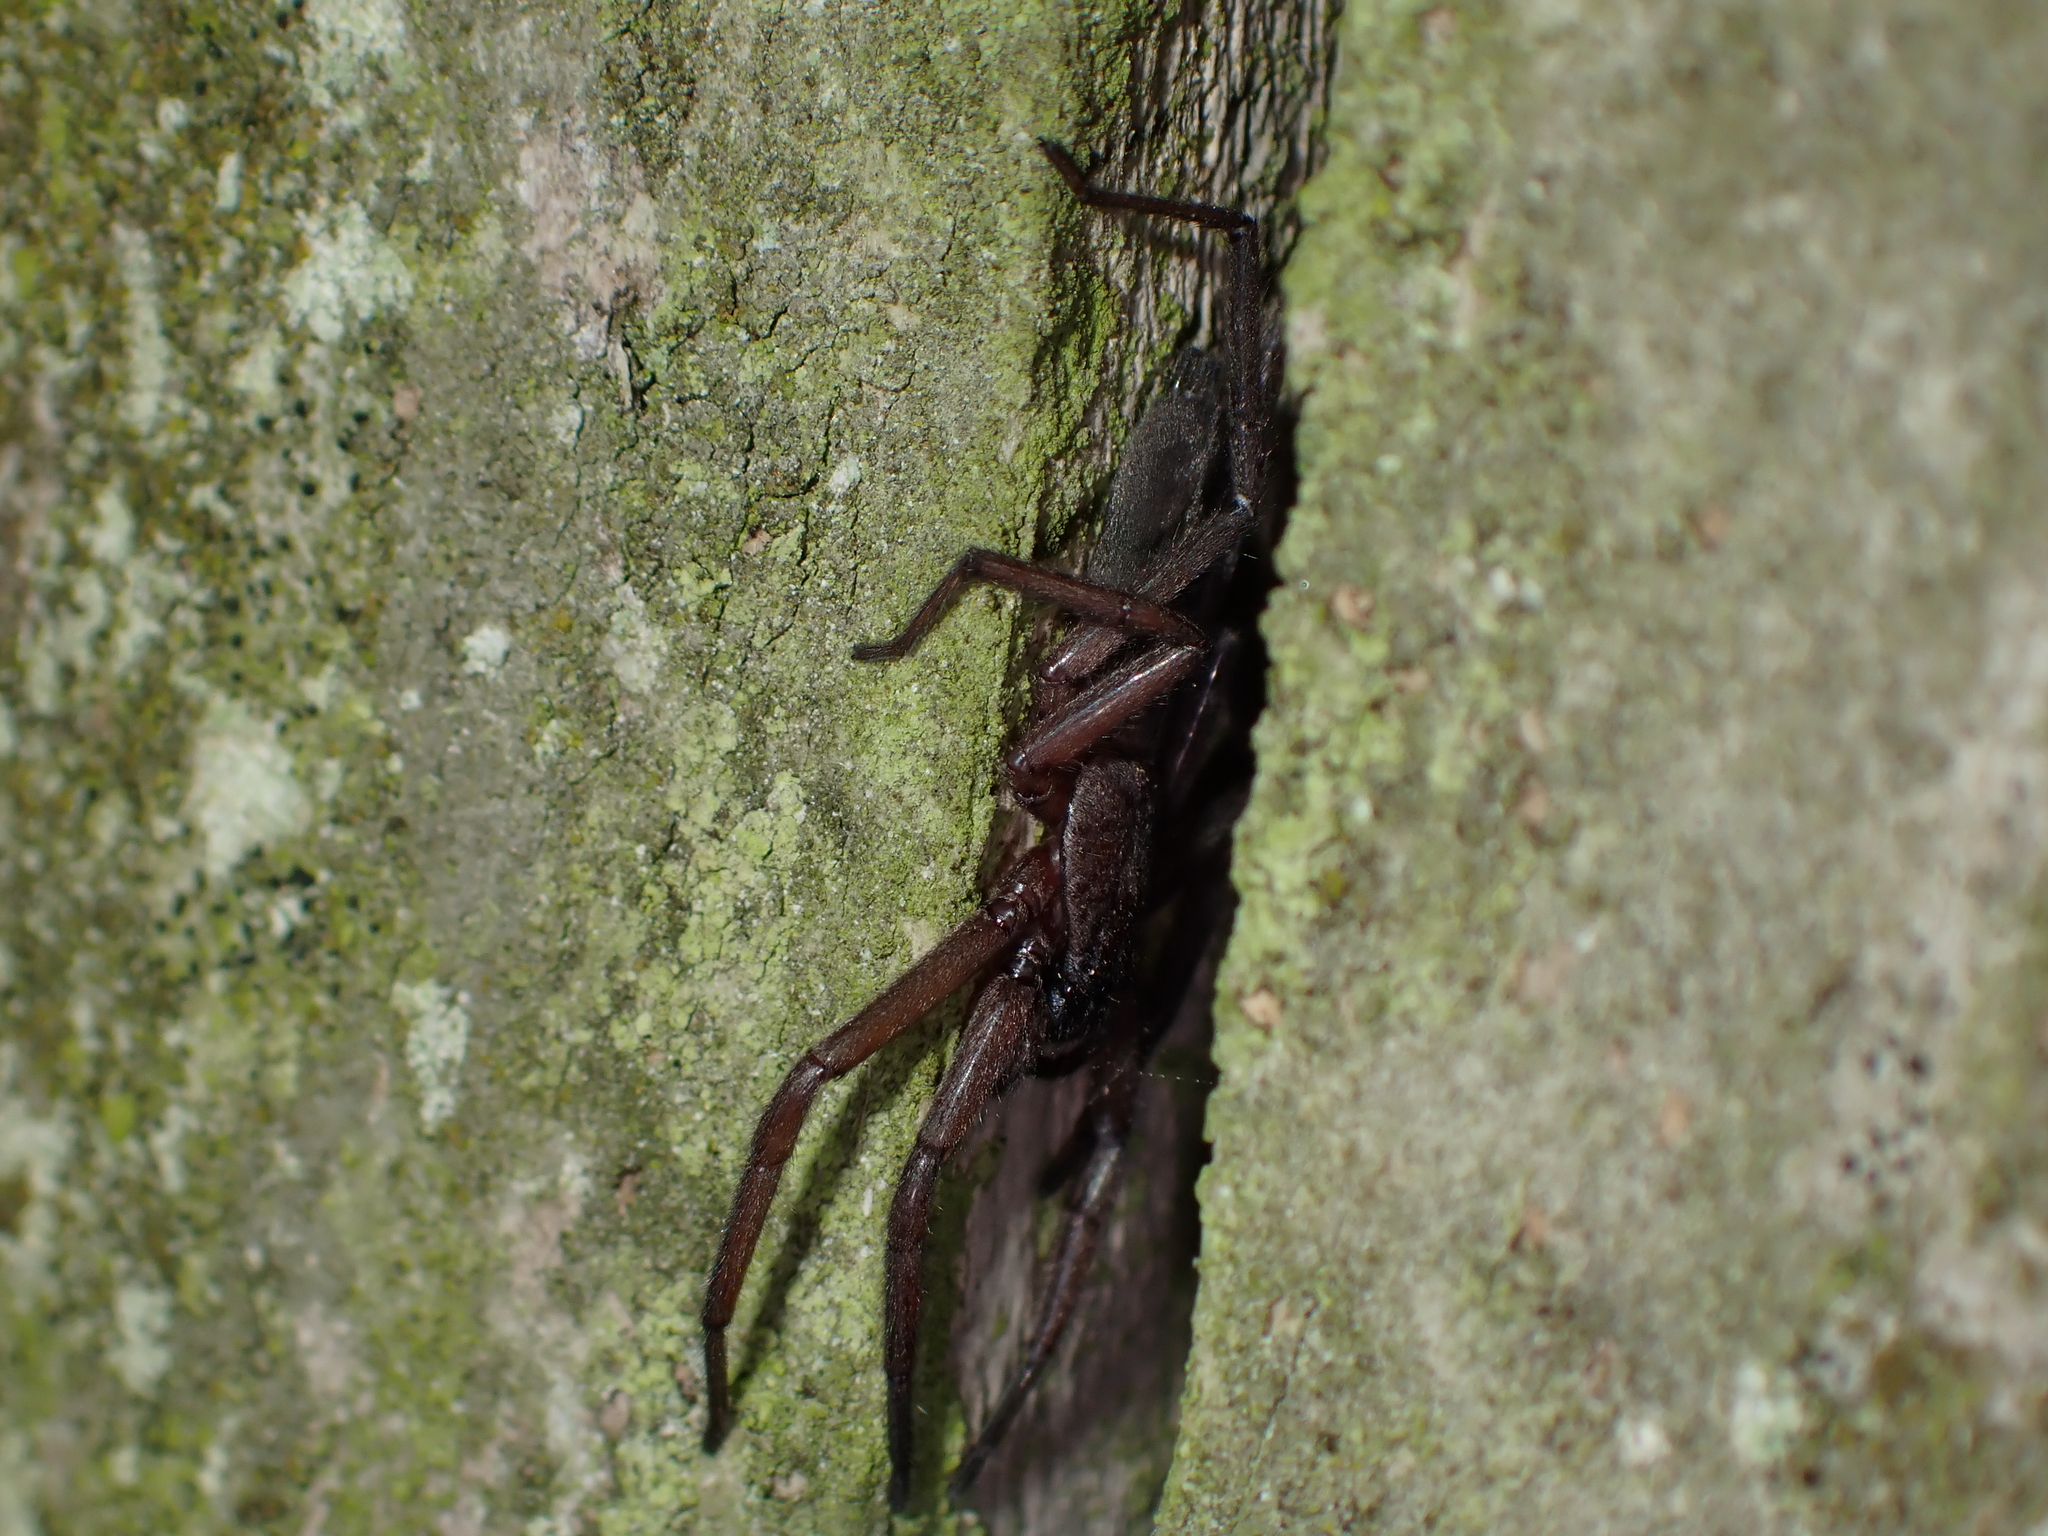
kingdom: Animalia
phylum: Arthropoda
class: Arachnida
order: Araneae
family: Trochanteriidae
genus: Hemicloea
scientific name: Hemicloea rogenhoferi
